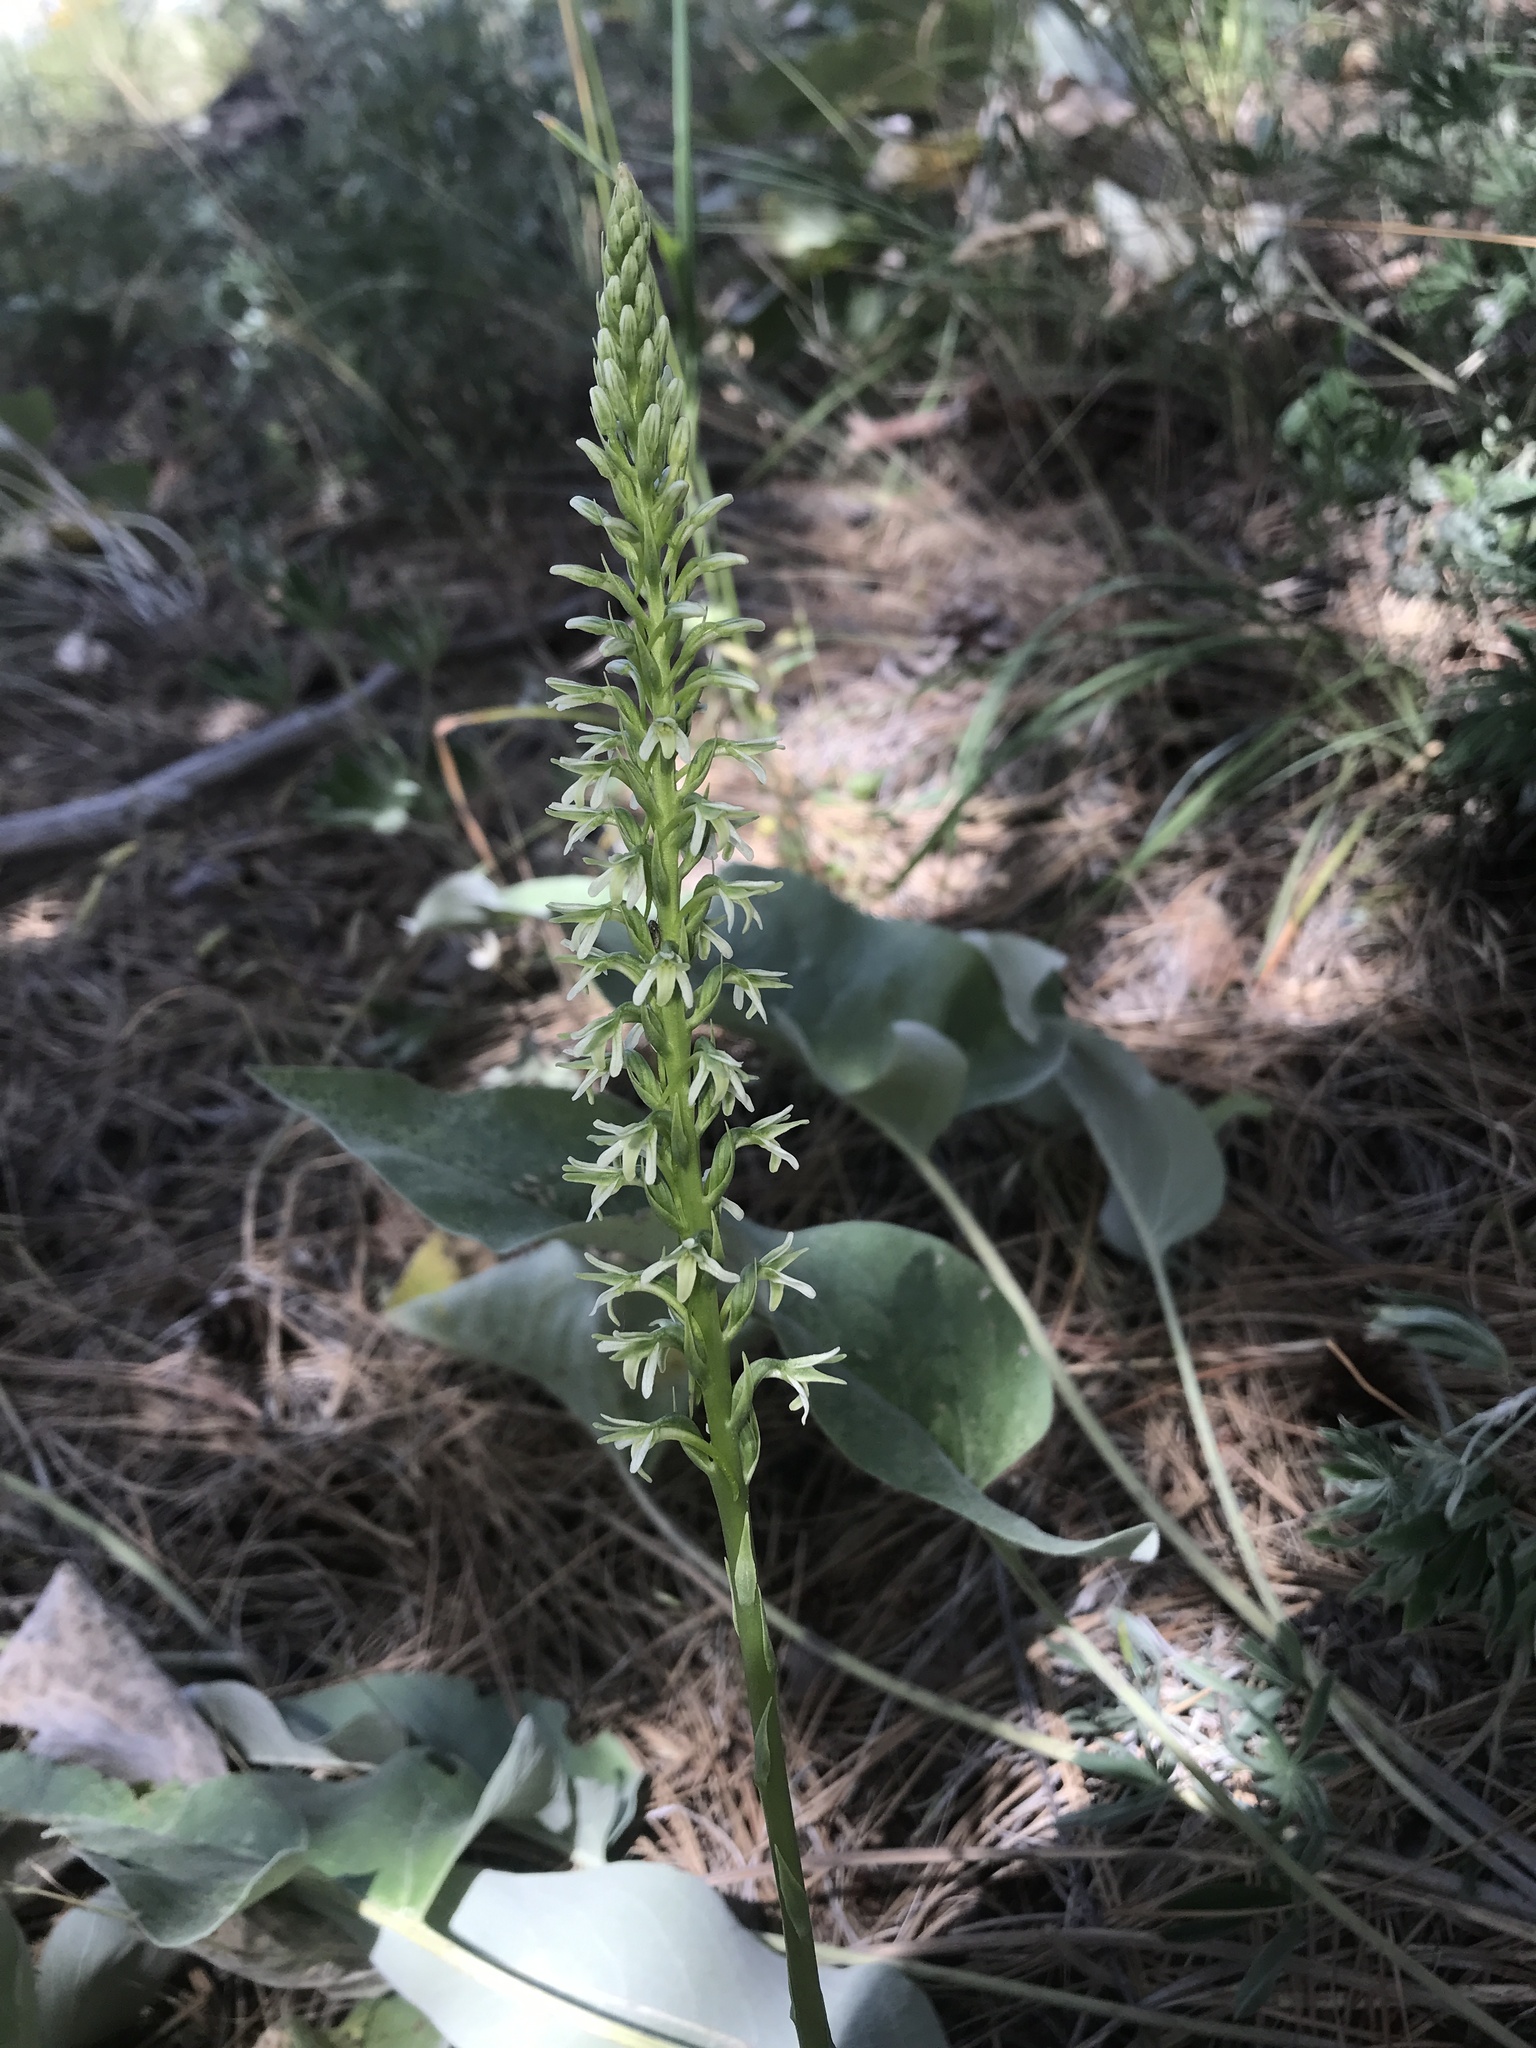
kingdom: Plantae
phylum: Tracheophyta
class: Liliopsida
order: Asparagales
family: Orchidaceae
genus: Platanthera
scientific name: Platanthera elegans
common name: Coast piperia
